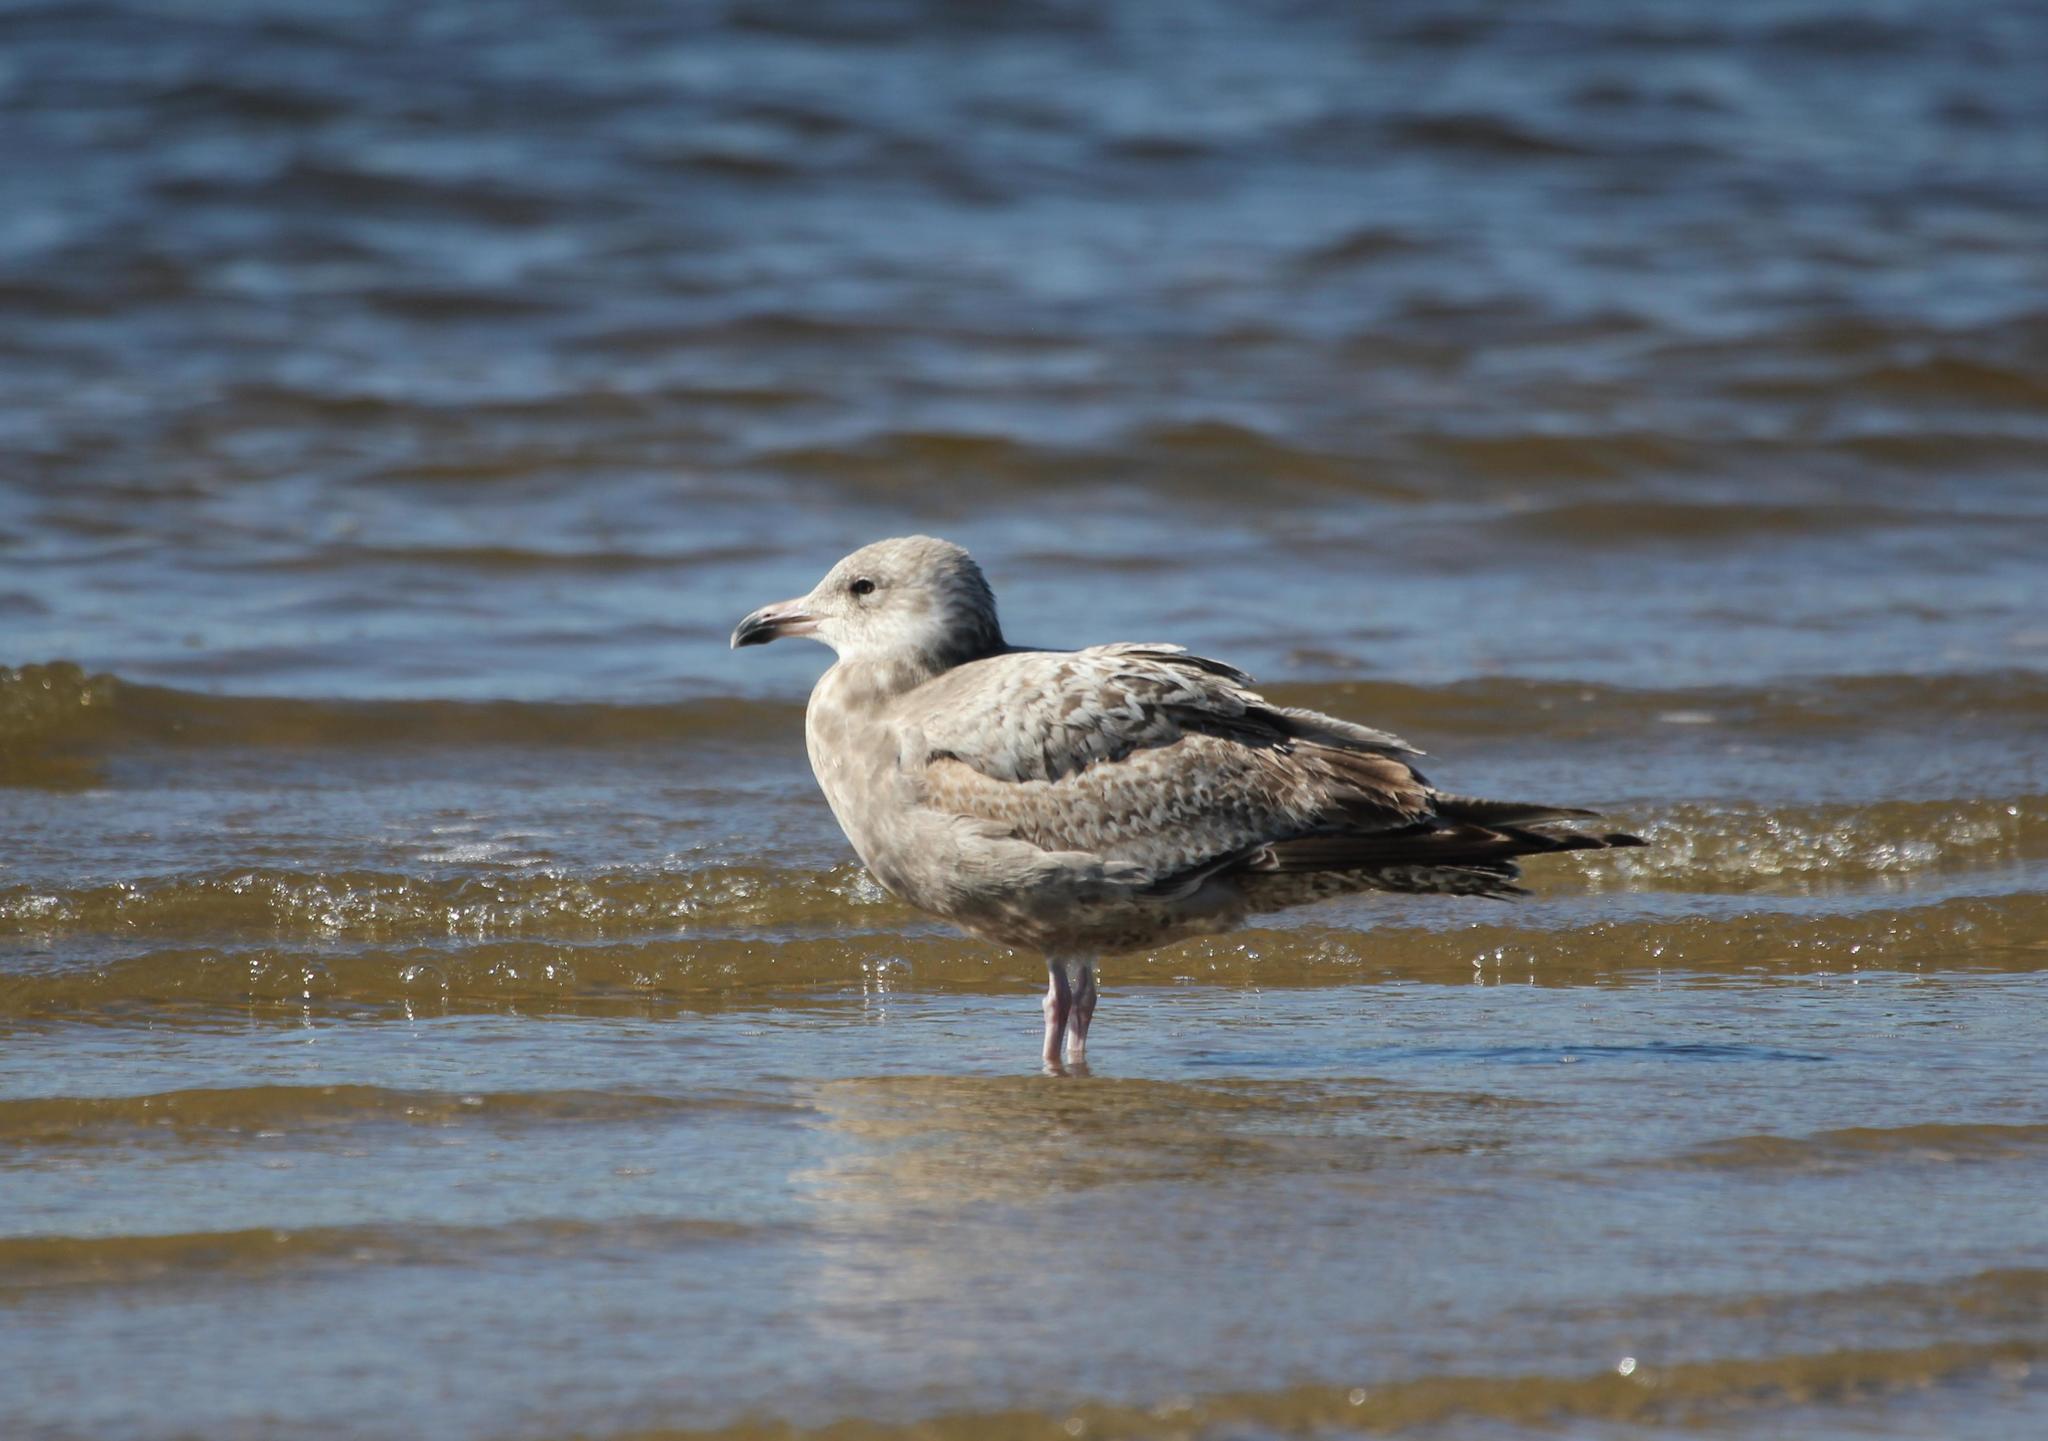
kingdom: Animalia
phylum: Chordata
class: Aves
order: Charadriiformes
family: Laridae
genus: Larus
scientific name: Larus argentatus
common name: Herring gull
